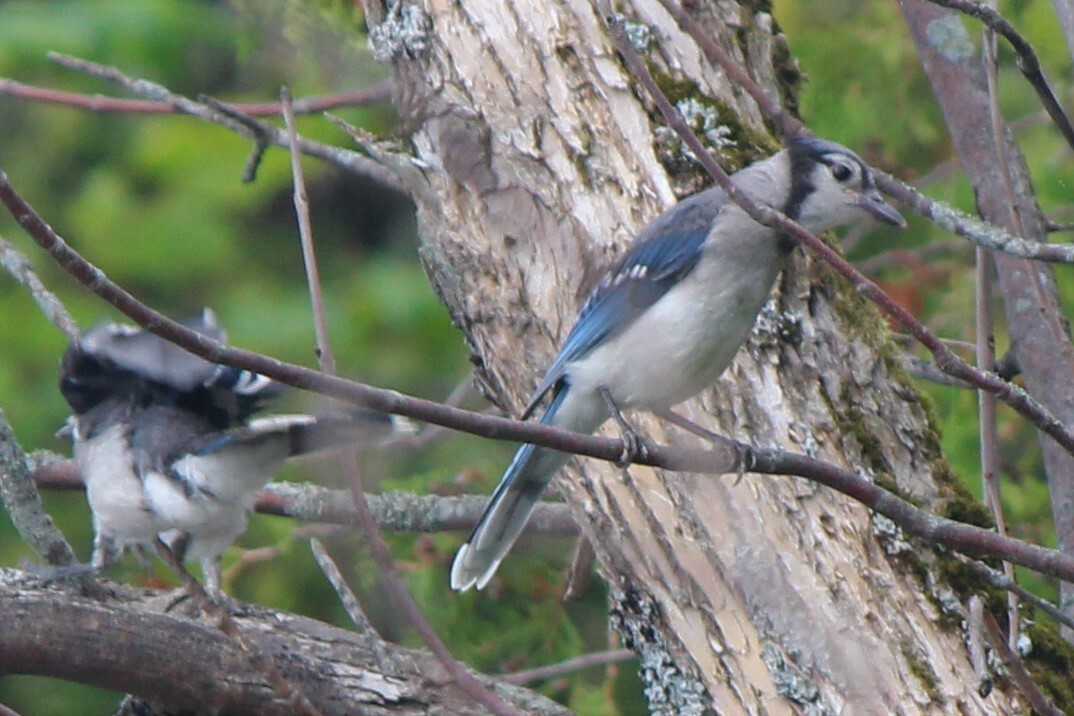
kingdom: Animalia
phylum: Chordata
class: Aves
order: Passeriformes
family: Corvidae
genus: Cyanocitta
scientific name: Cyanocitta cristata
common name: Blue jay
